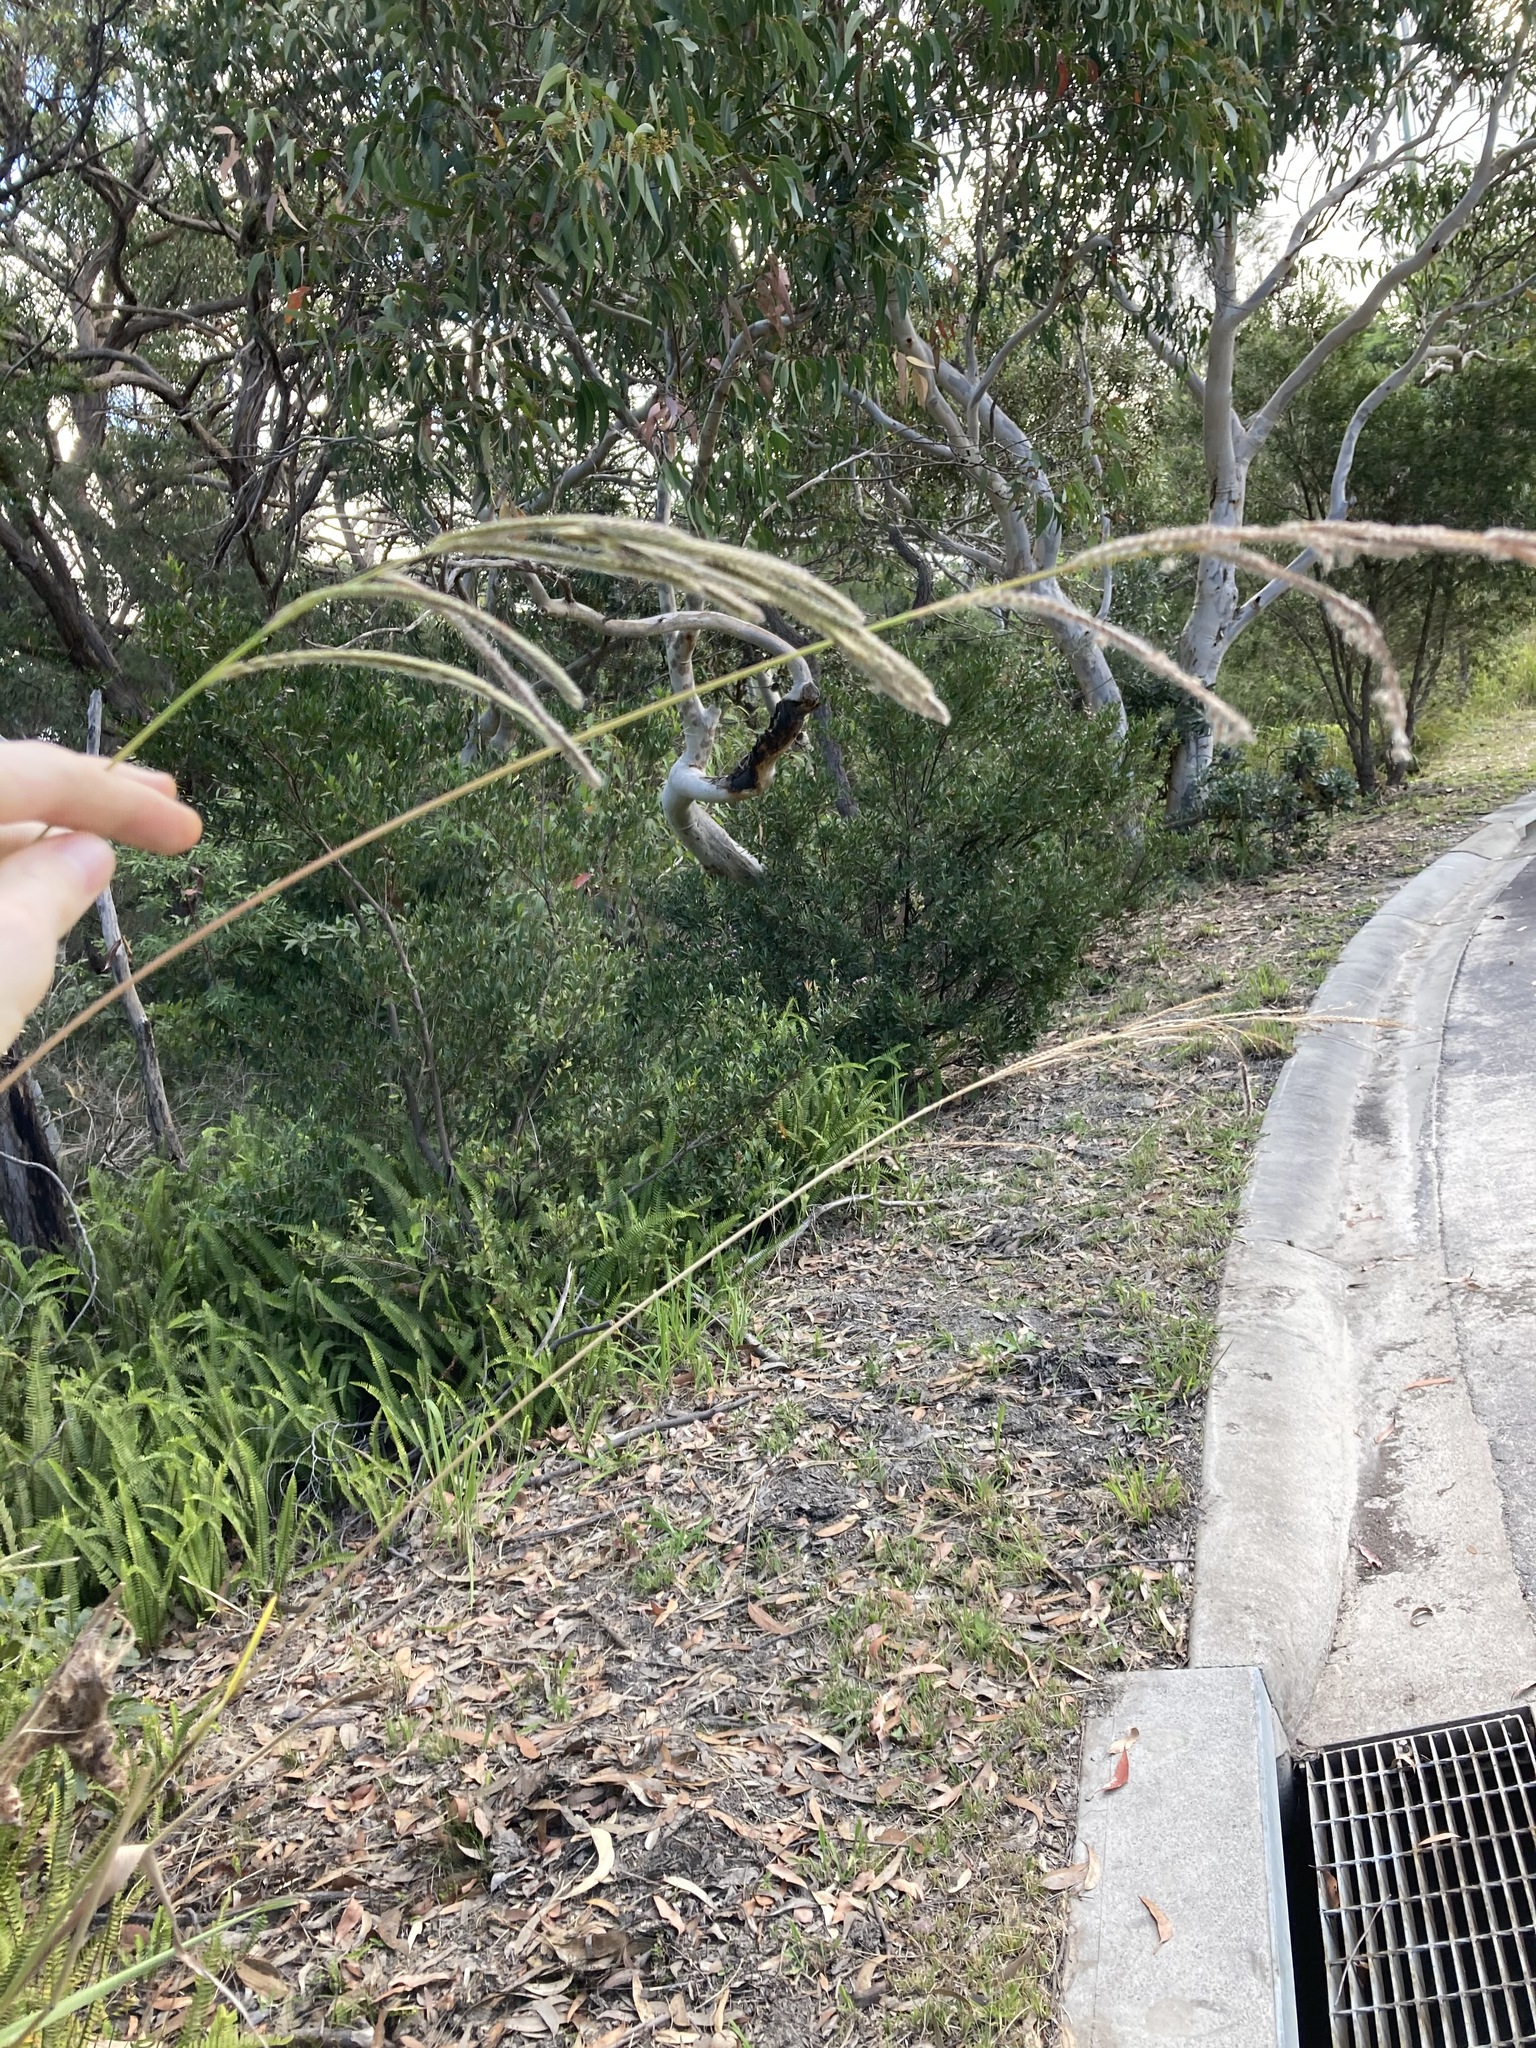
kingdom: Plantae
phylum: Tracheophyta
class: Liliopsida
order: Poales
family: Poaceae
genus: Paspalum
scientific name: Paspalum urvillei
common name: Vasey's grass
